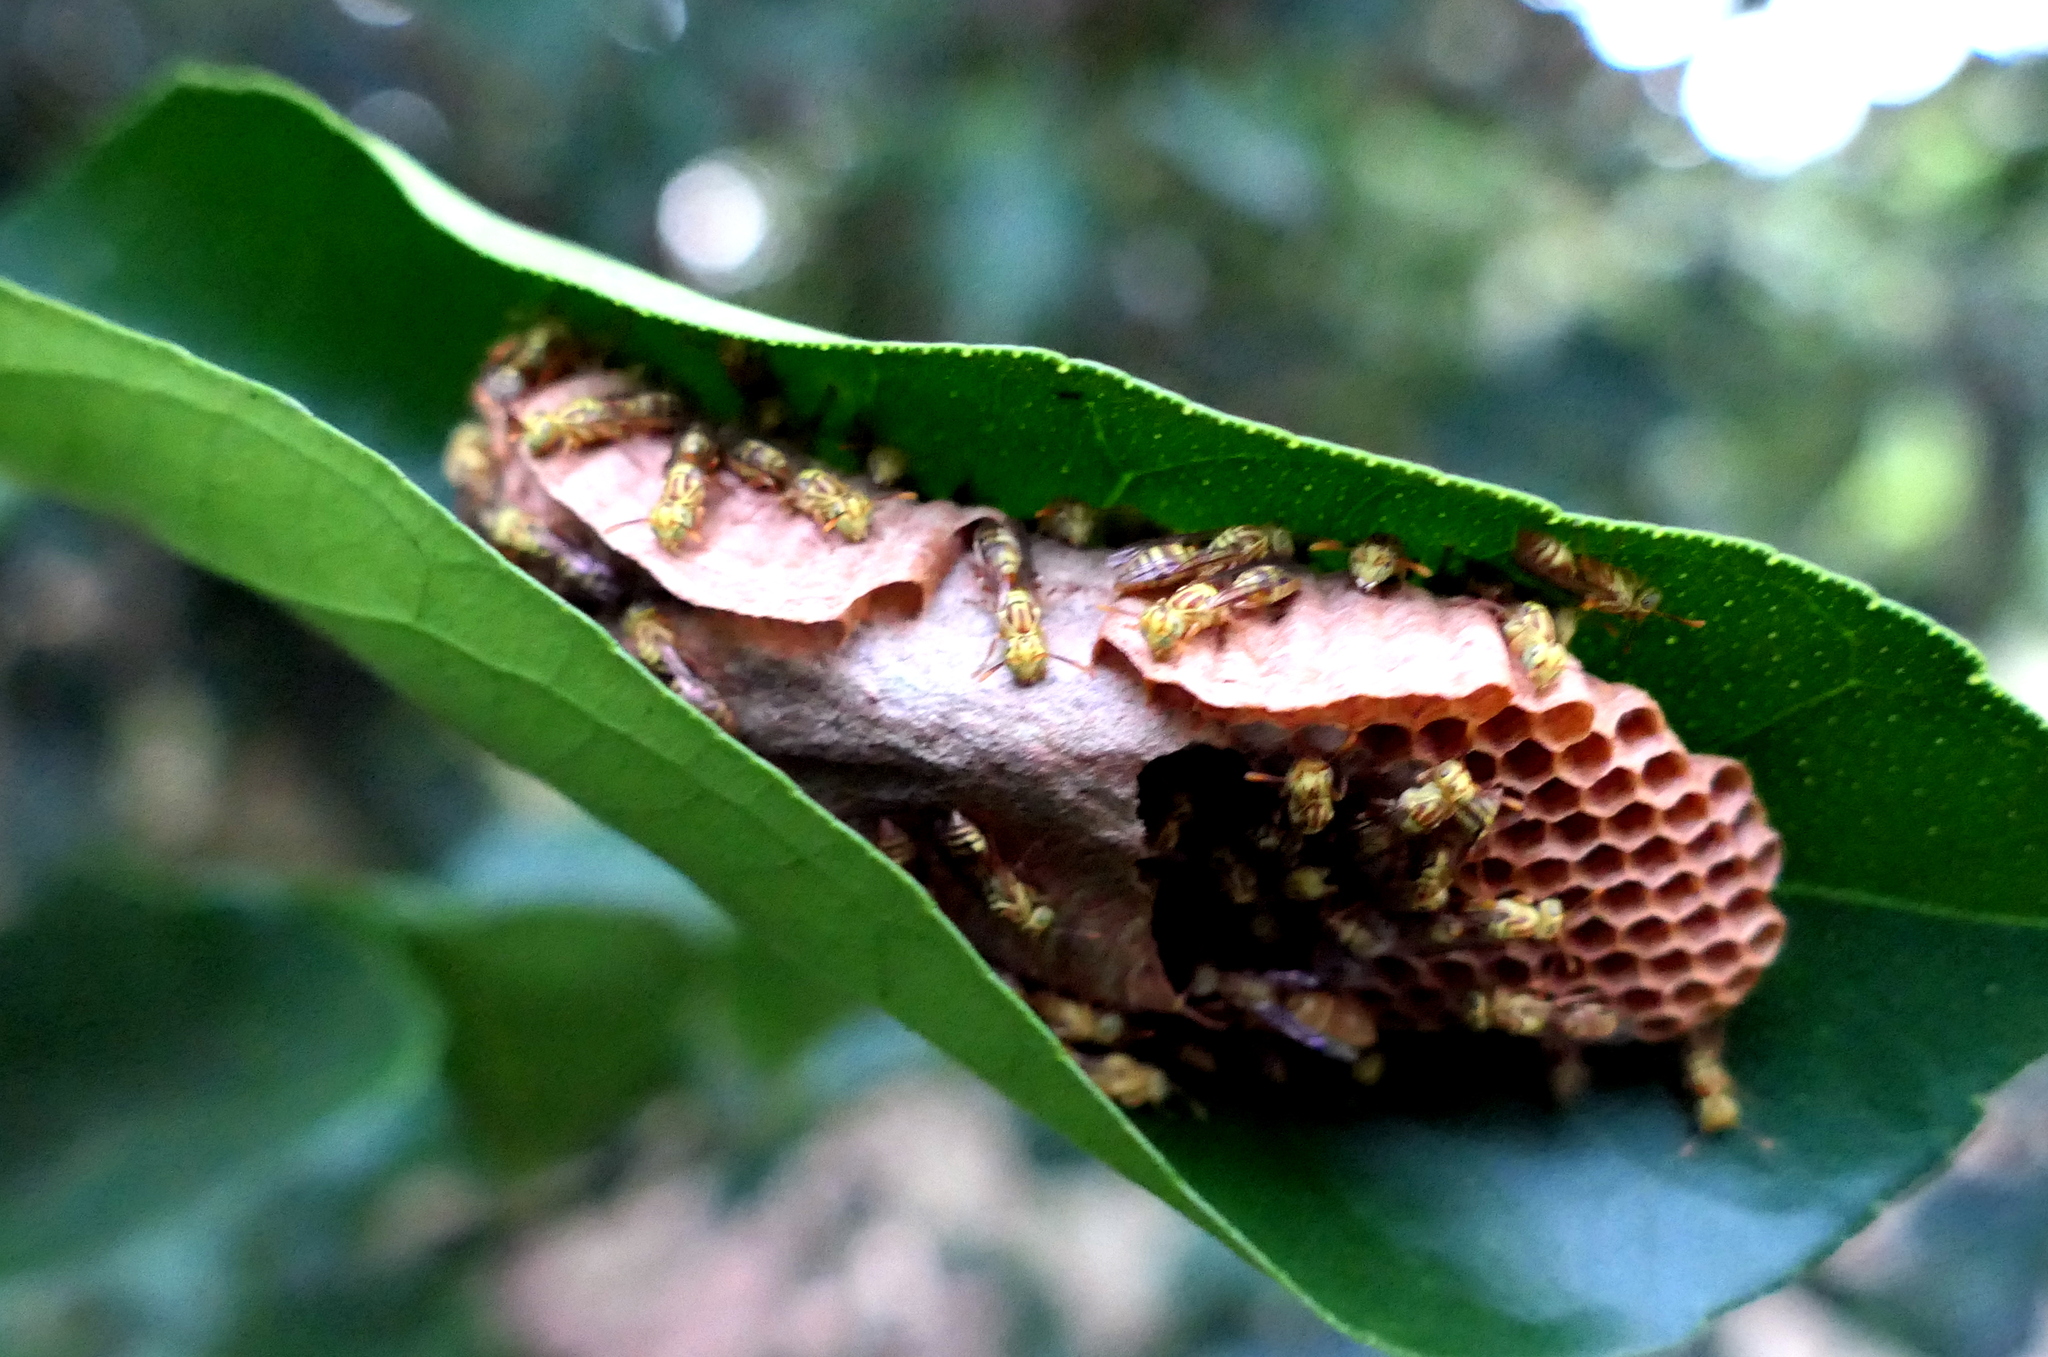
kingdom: Animalia
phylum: Arthropoda
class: Insecta
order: Hymenoptera
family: Vespidae
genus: Protopolybia
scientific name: Protopolybia potiguara
